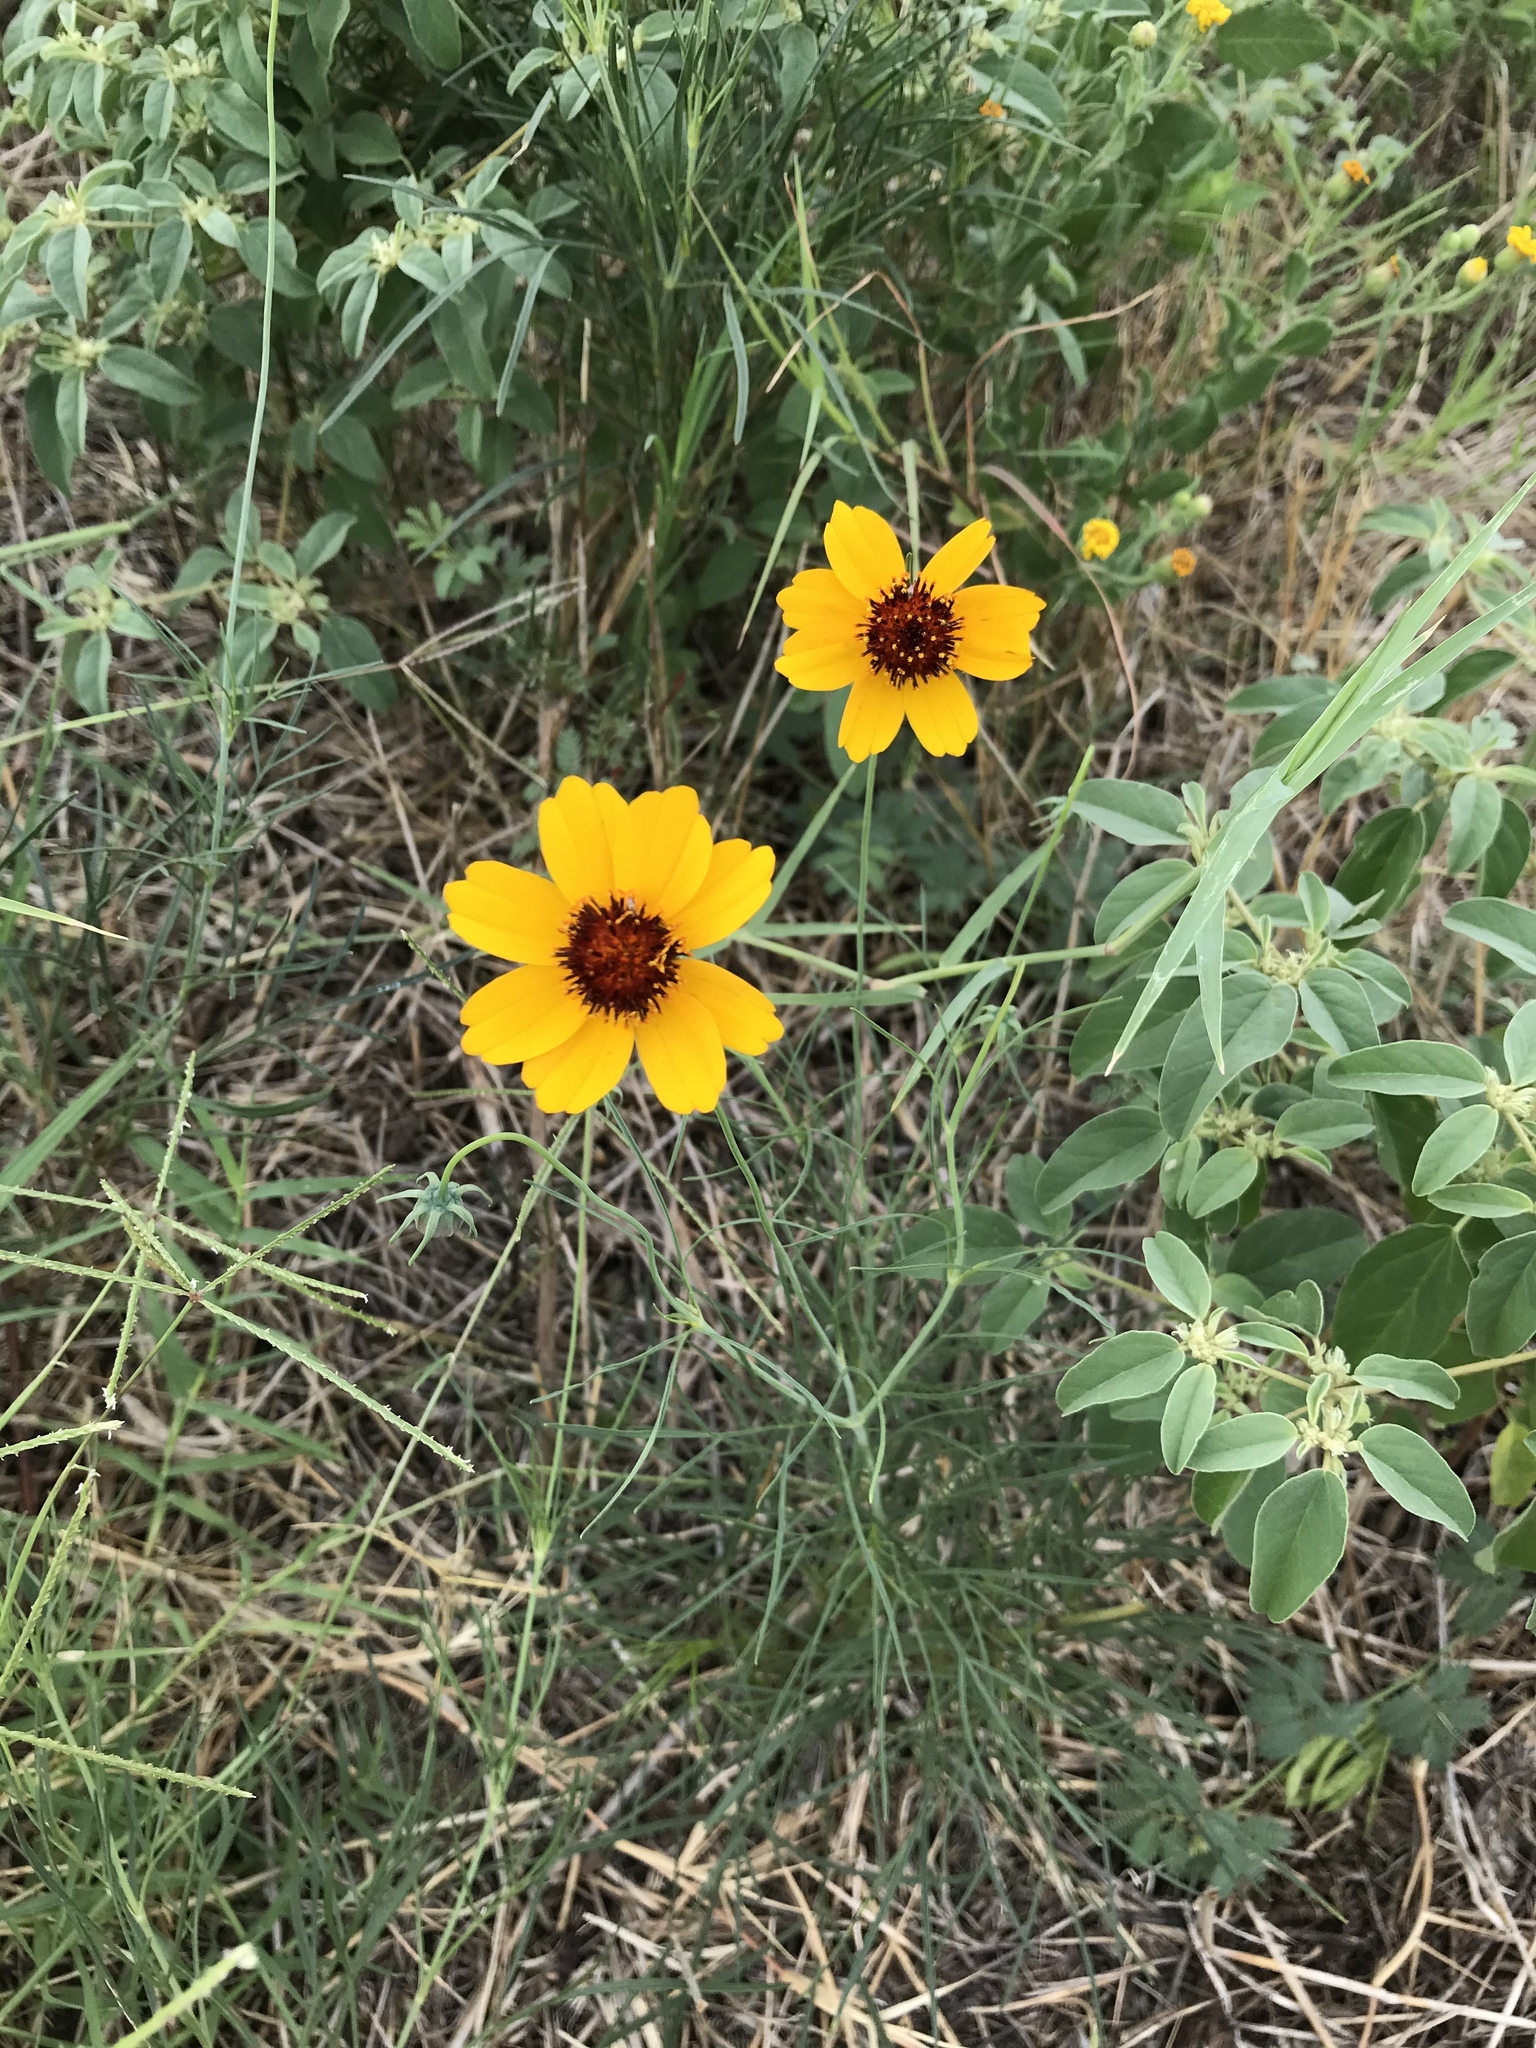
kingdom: Plantae
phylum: Tracheophyta
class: Magnoliopsida
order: Asterales
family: Asteraceae
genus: Thelesperma
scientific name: Thelesperma filifolium
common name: Stiff greenthread
